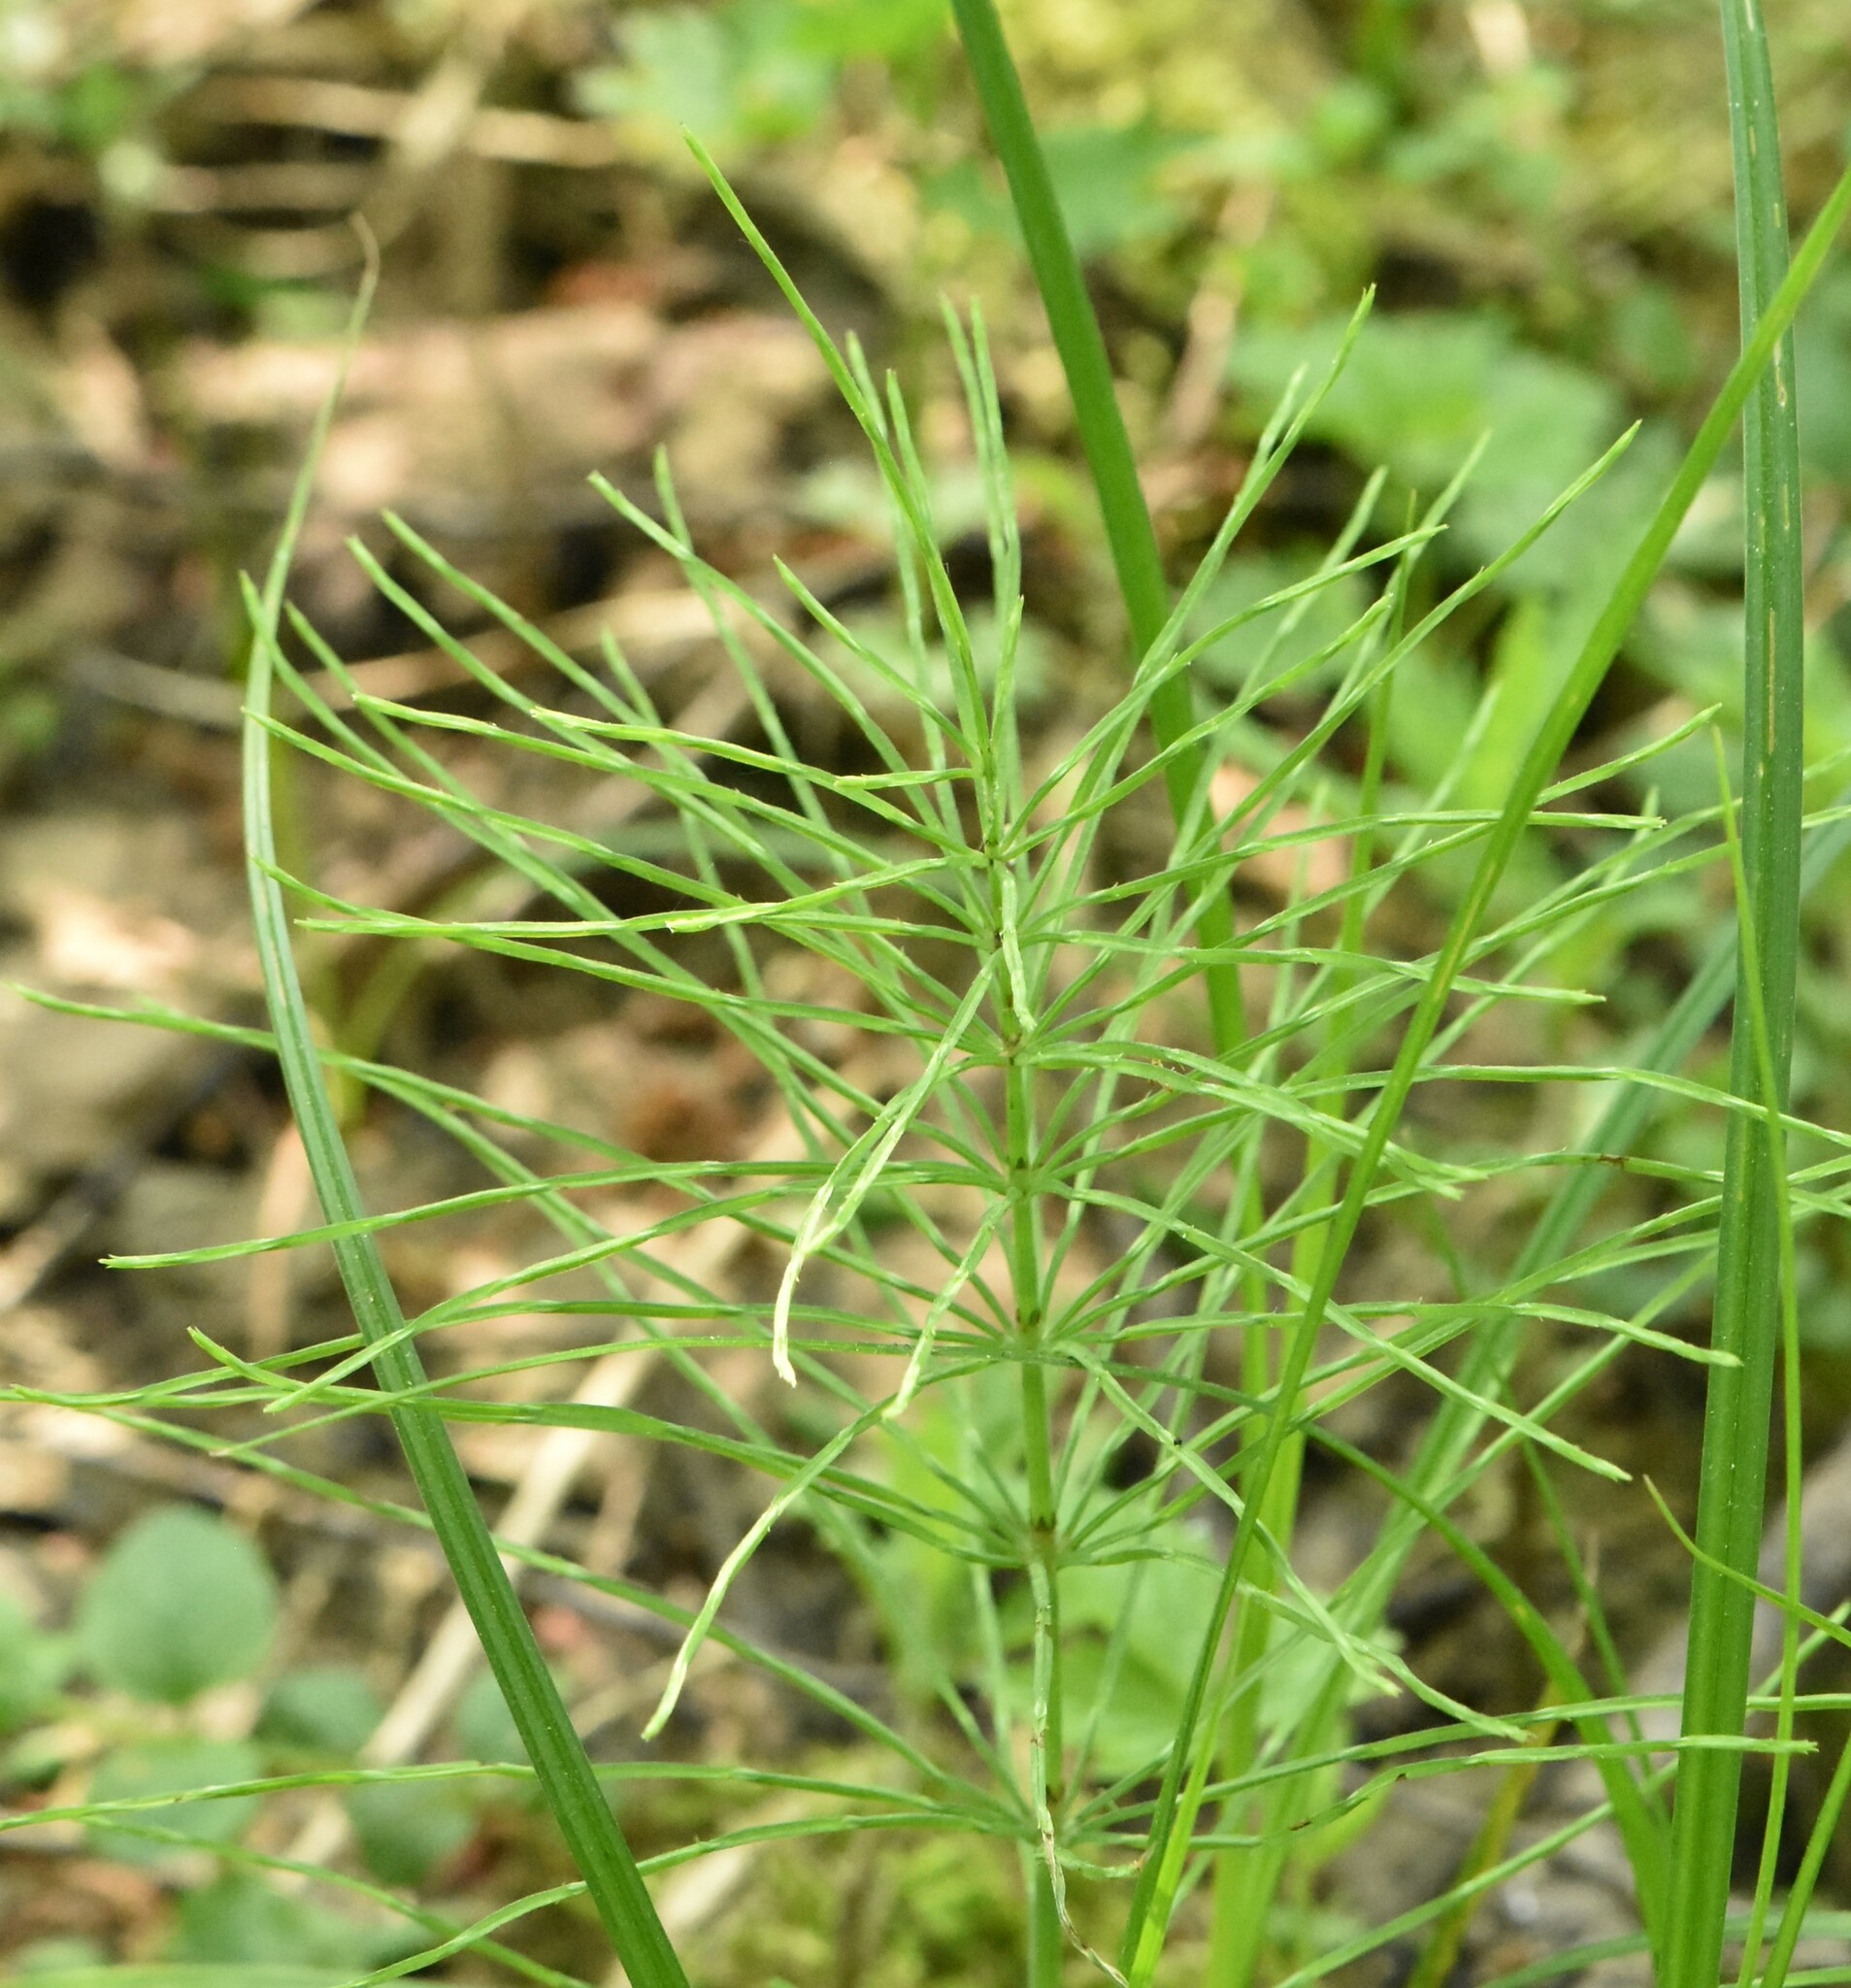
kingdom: Plantae
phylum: Tracheophyta
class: Polypodiopsida
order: Equisetales
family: Equisetaceae
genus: Equisetum
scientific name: Equisetum arvense
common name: Field horsetail
